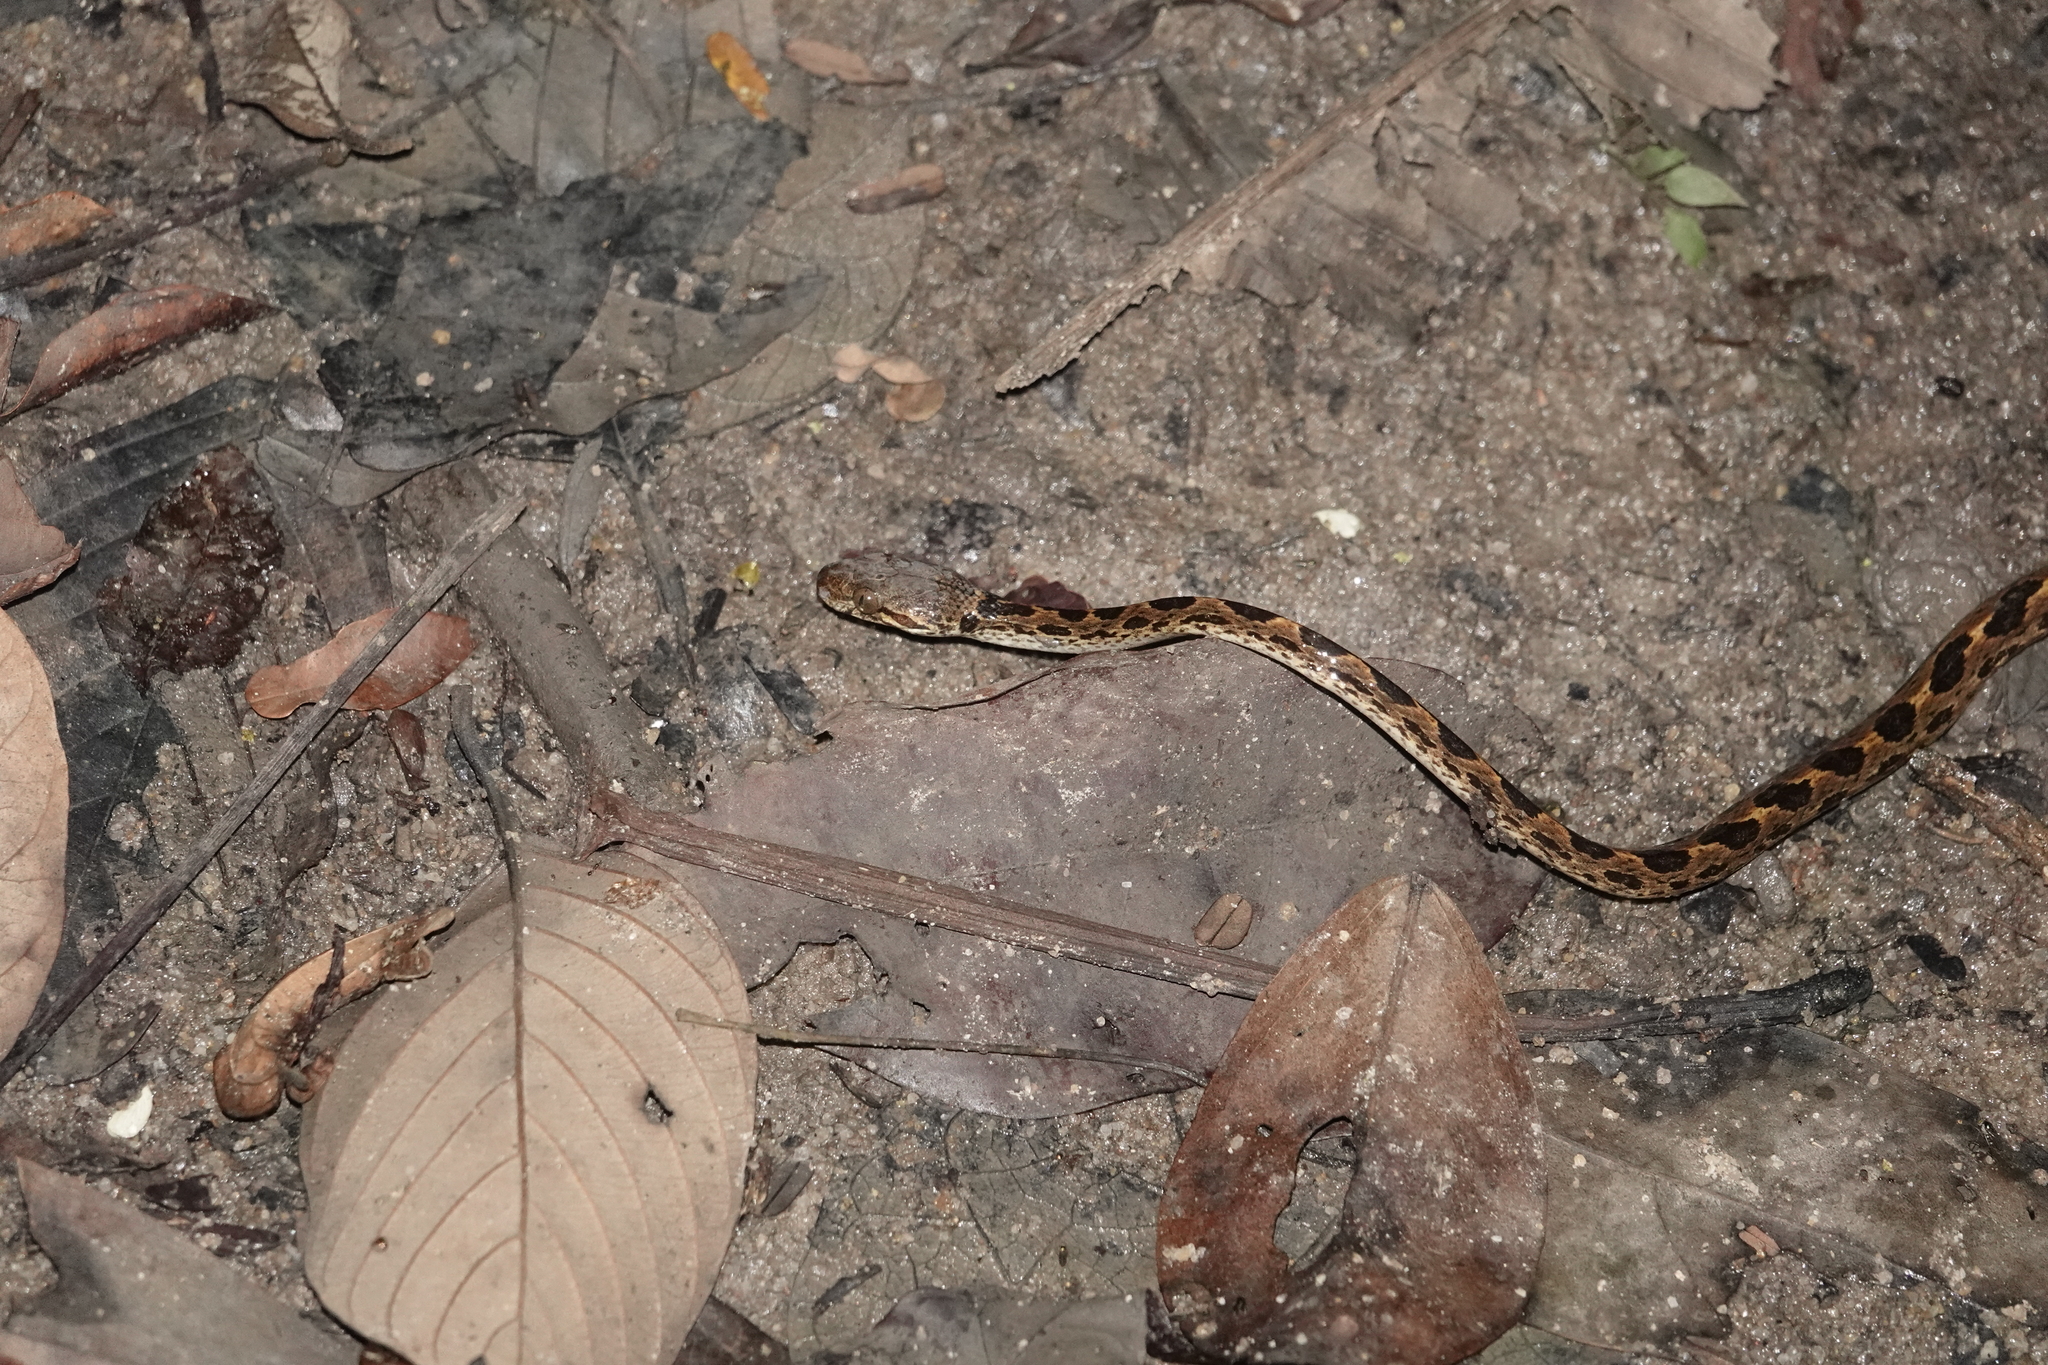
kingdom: Animalia
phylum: Chordata
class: Squamata
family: Colubridae
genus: Leptodeira
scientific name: Leptodeira annulata
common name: Banded cat-eyed snake
